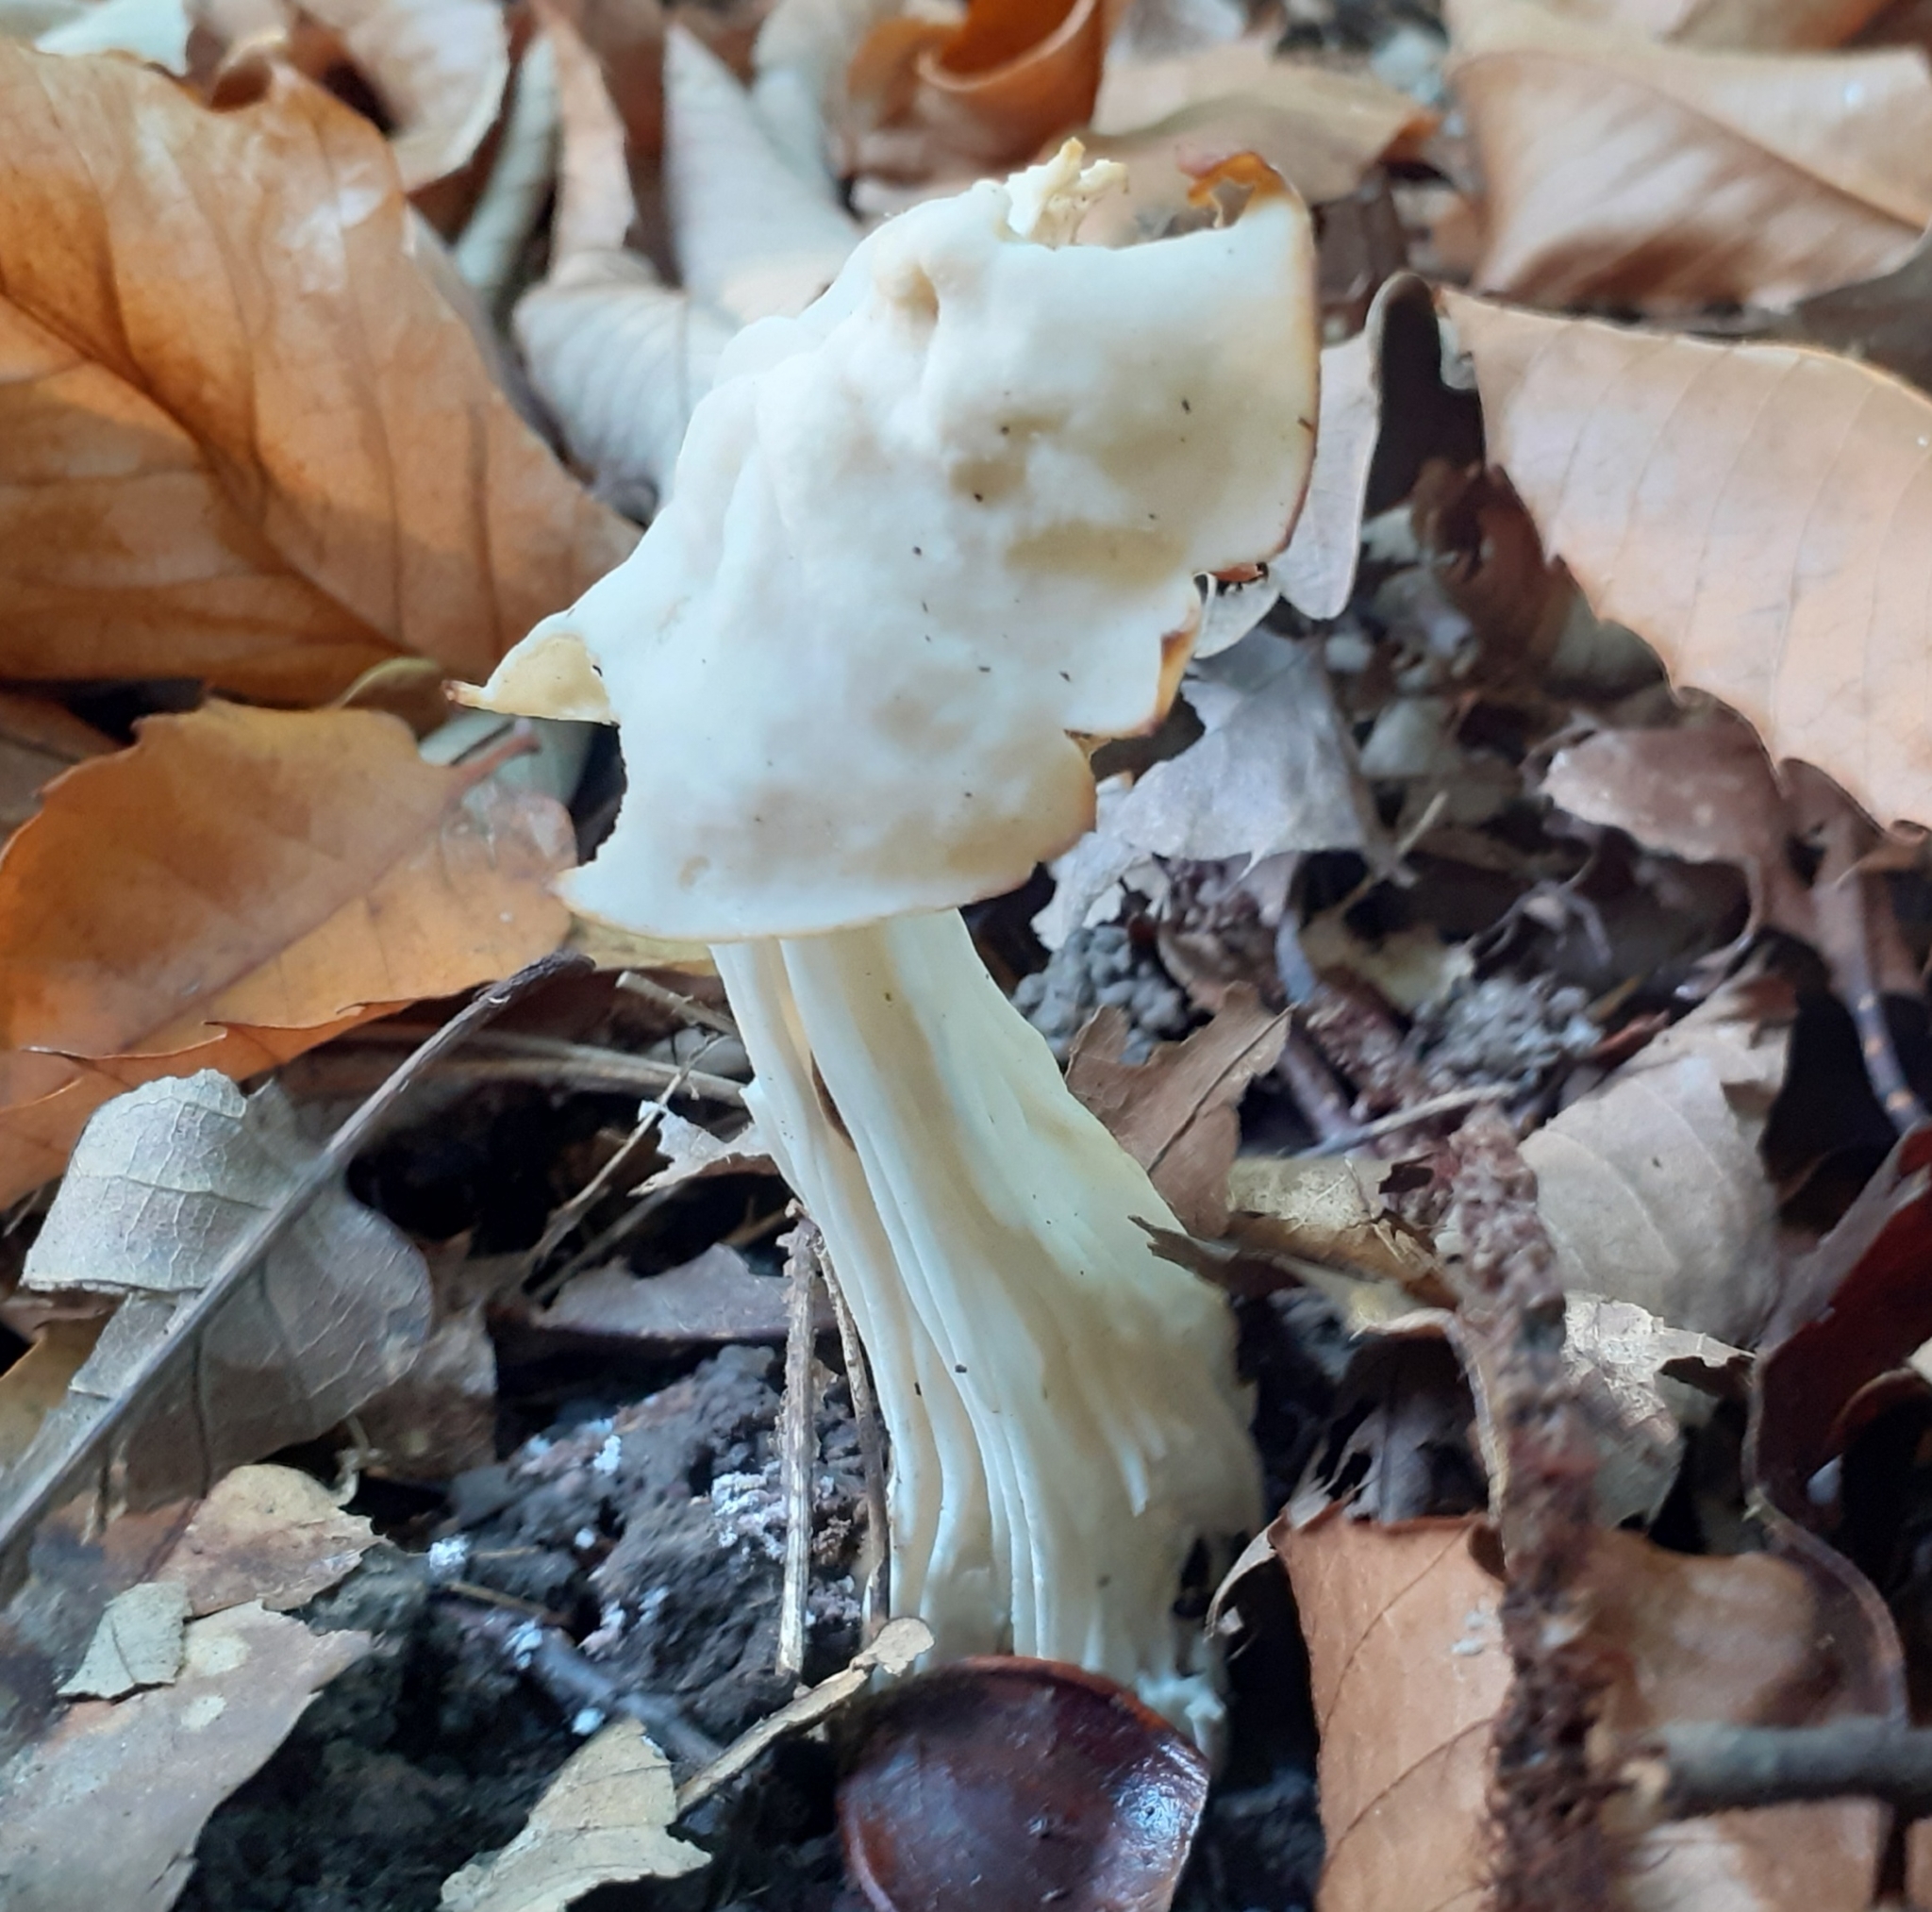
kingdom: Fungi
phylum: Ascomycota
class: Pezizomycetes
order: Pezizales
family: Helvellaceae
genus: Helvella
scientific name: Helvella crispa
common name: White saddle
